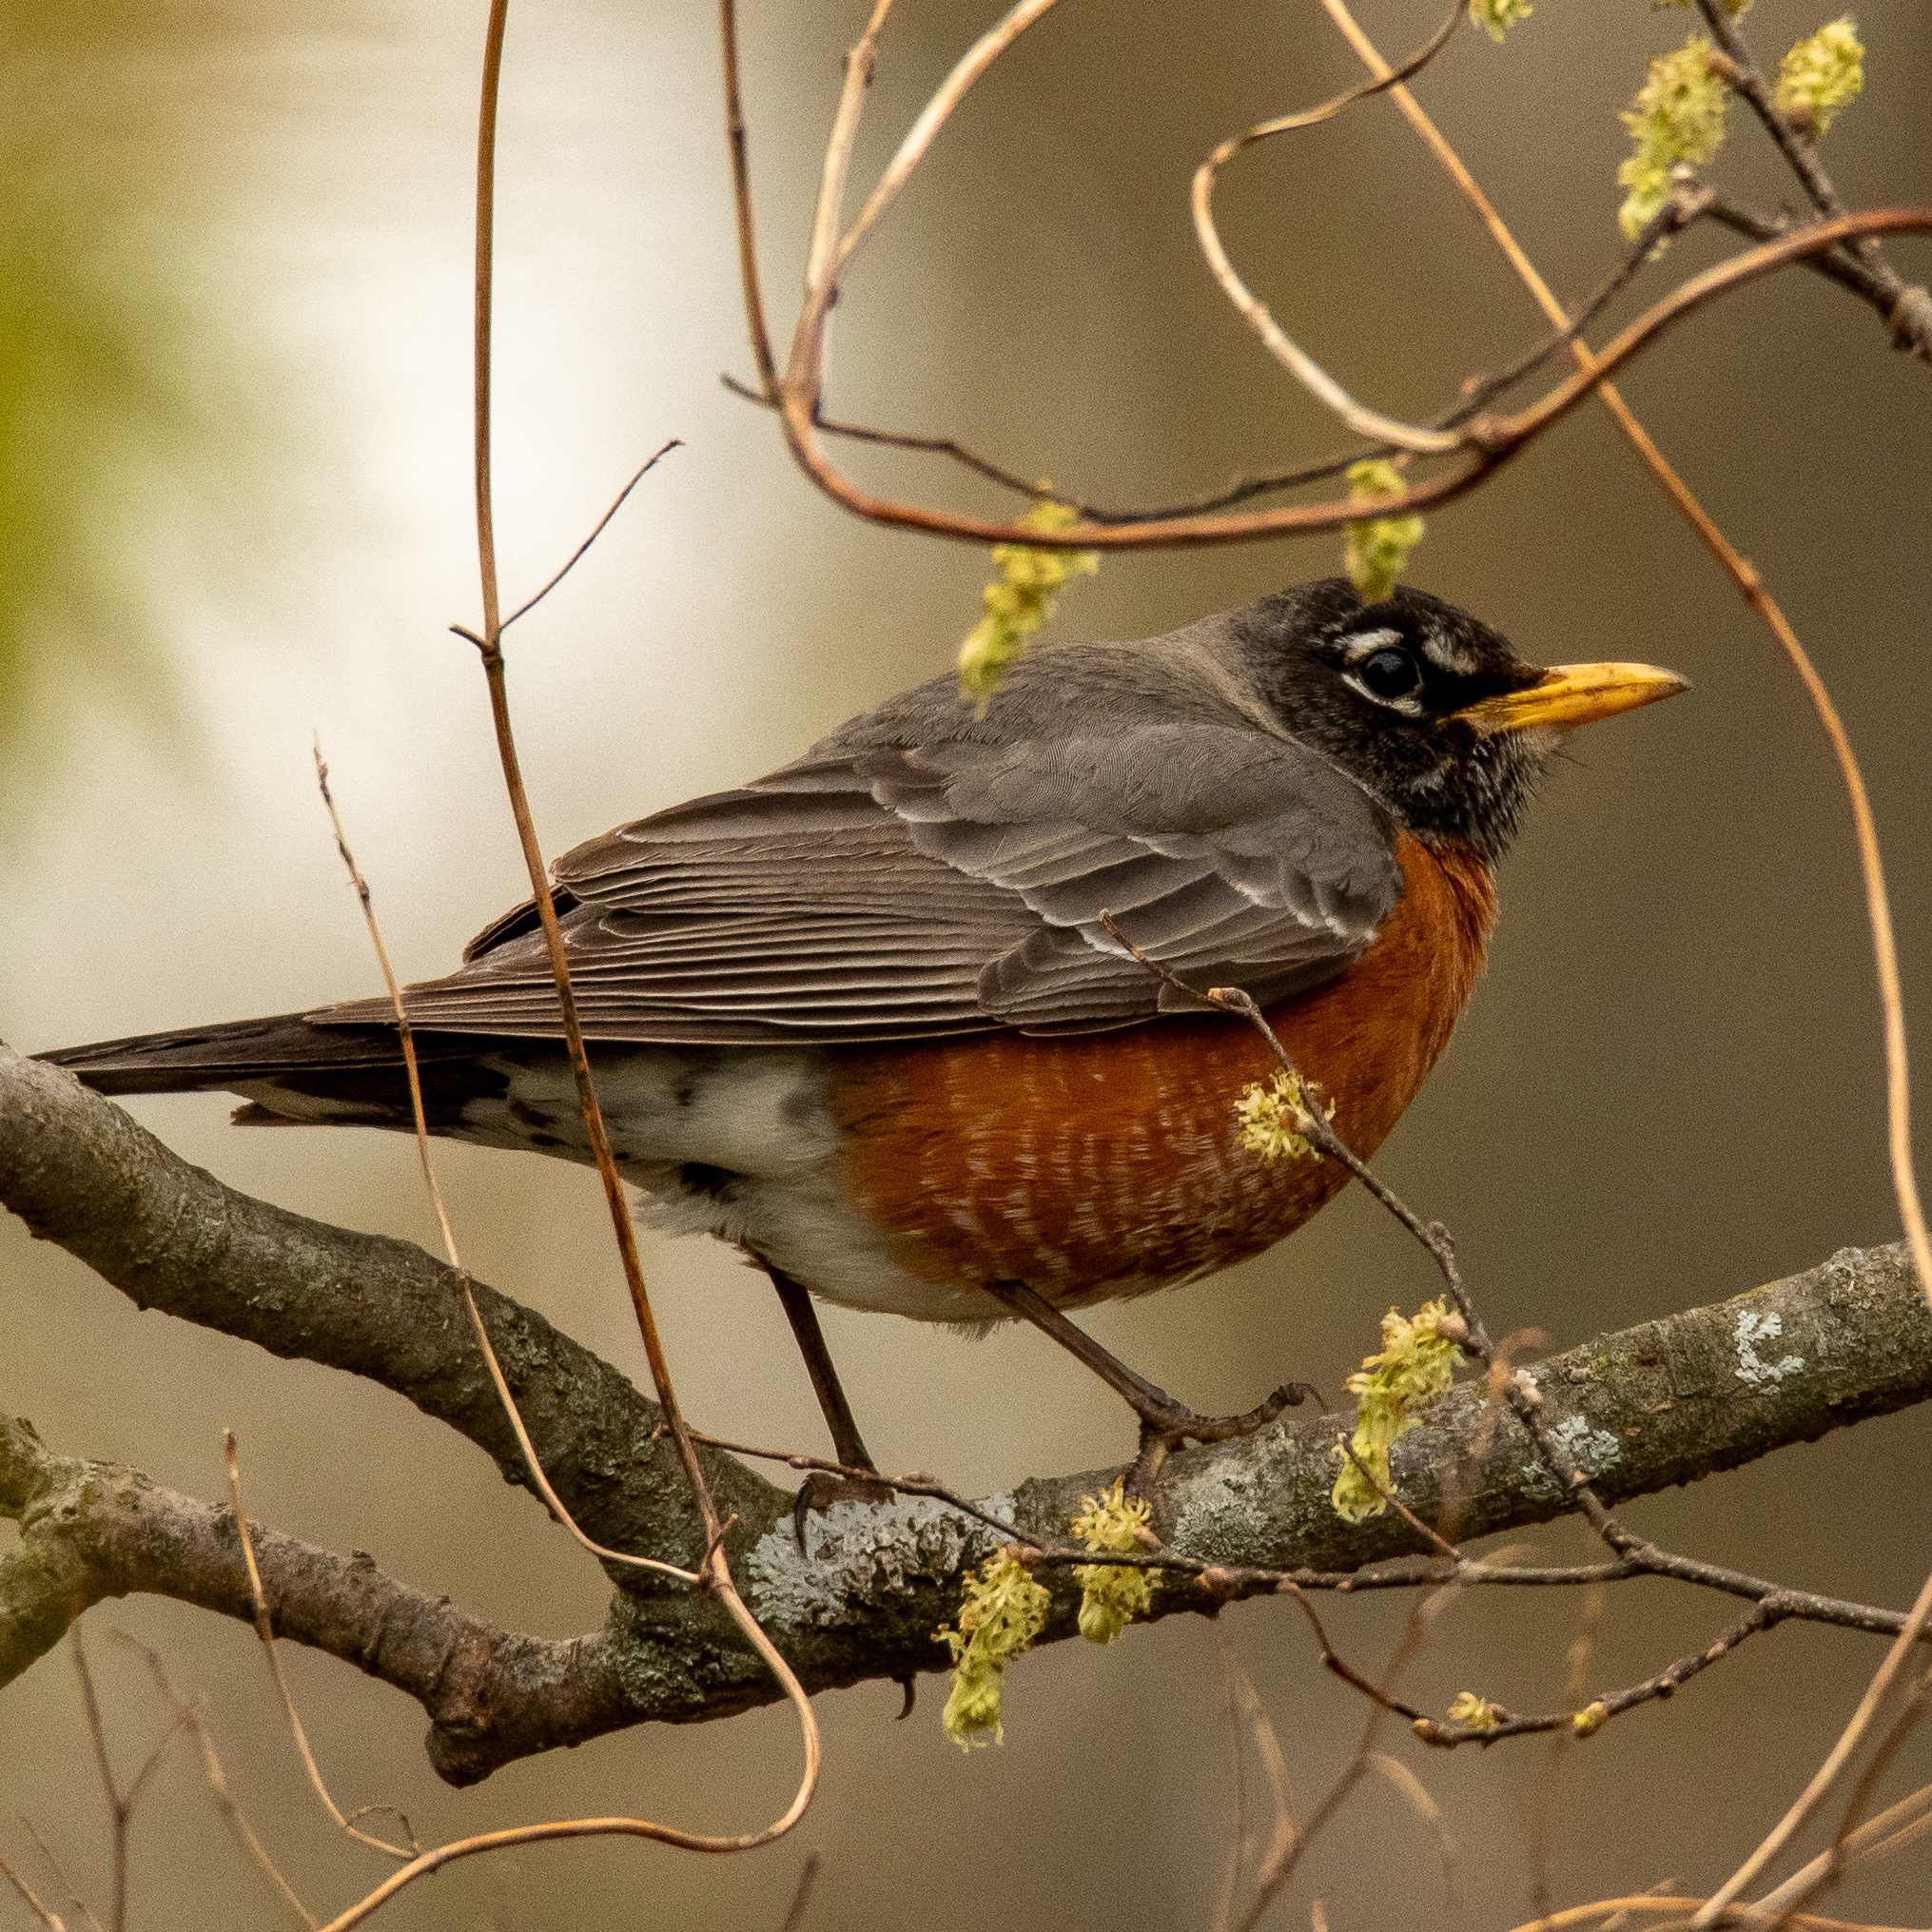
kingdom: Animalia
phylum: Chordata
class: Aves
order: Passeriformes
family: Turdidae
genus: Turdus
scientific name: Turdus migratorius
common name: American robin
